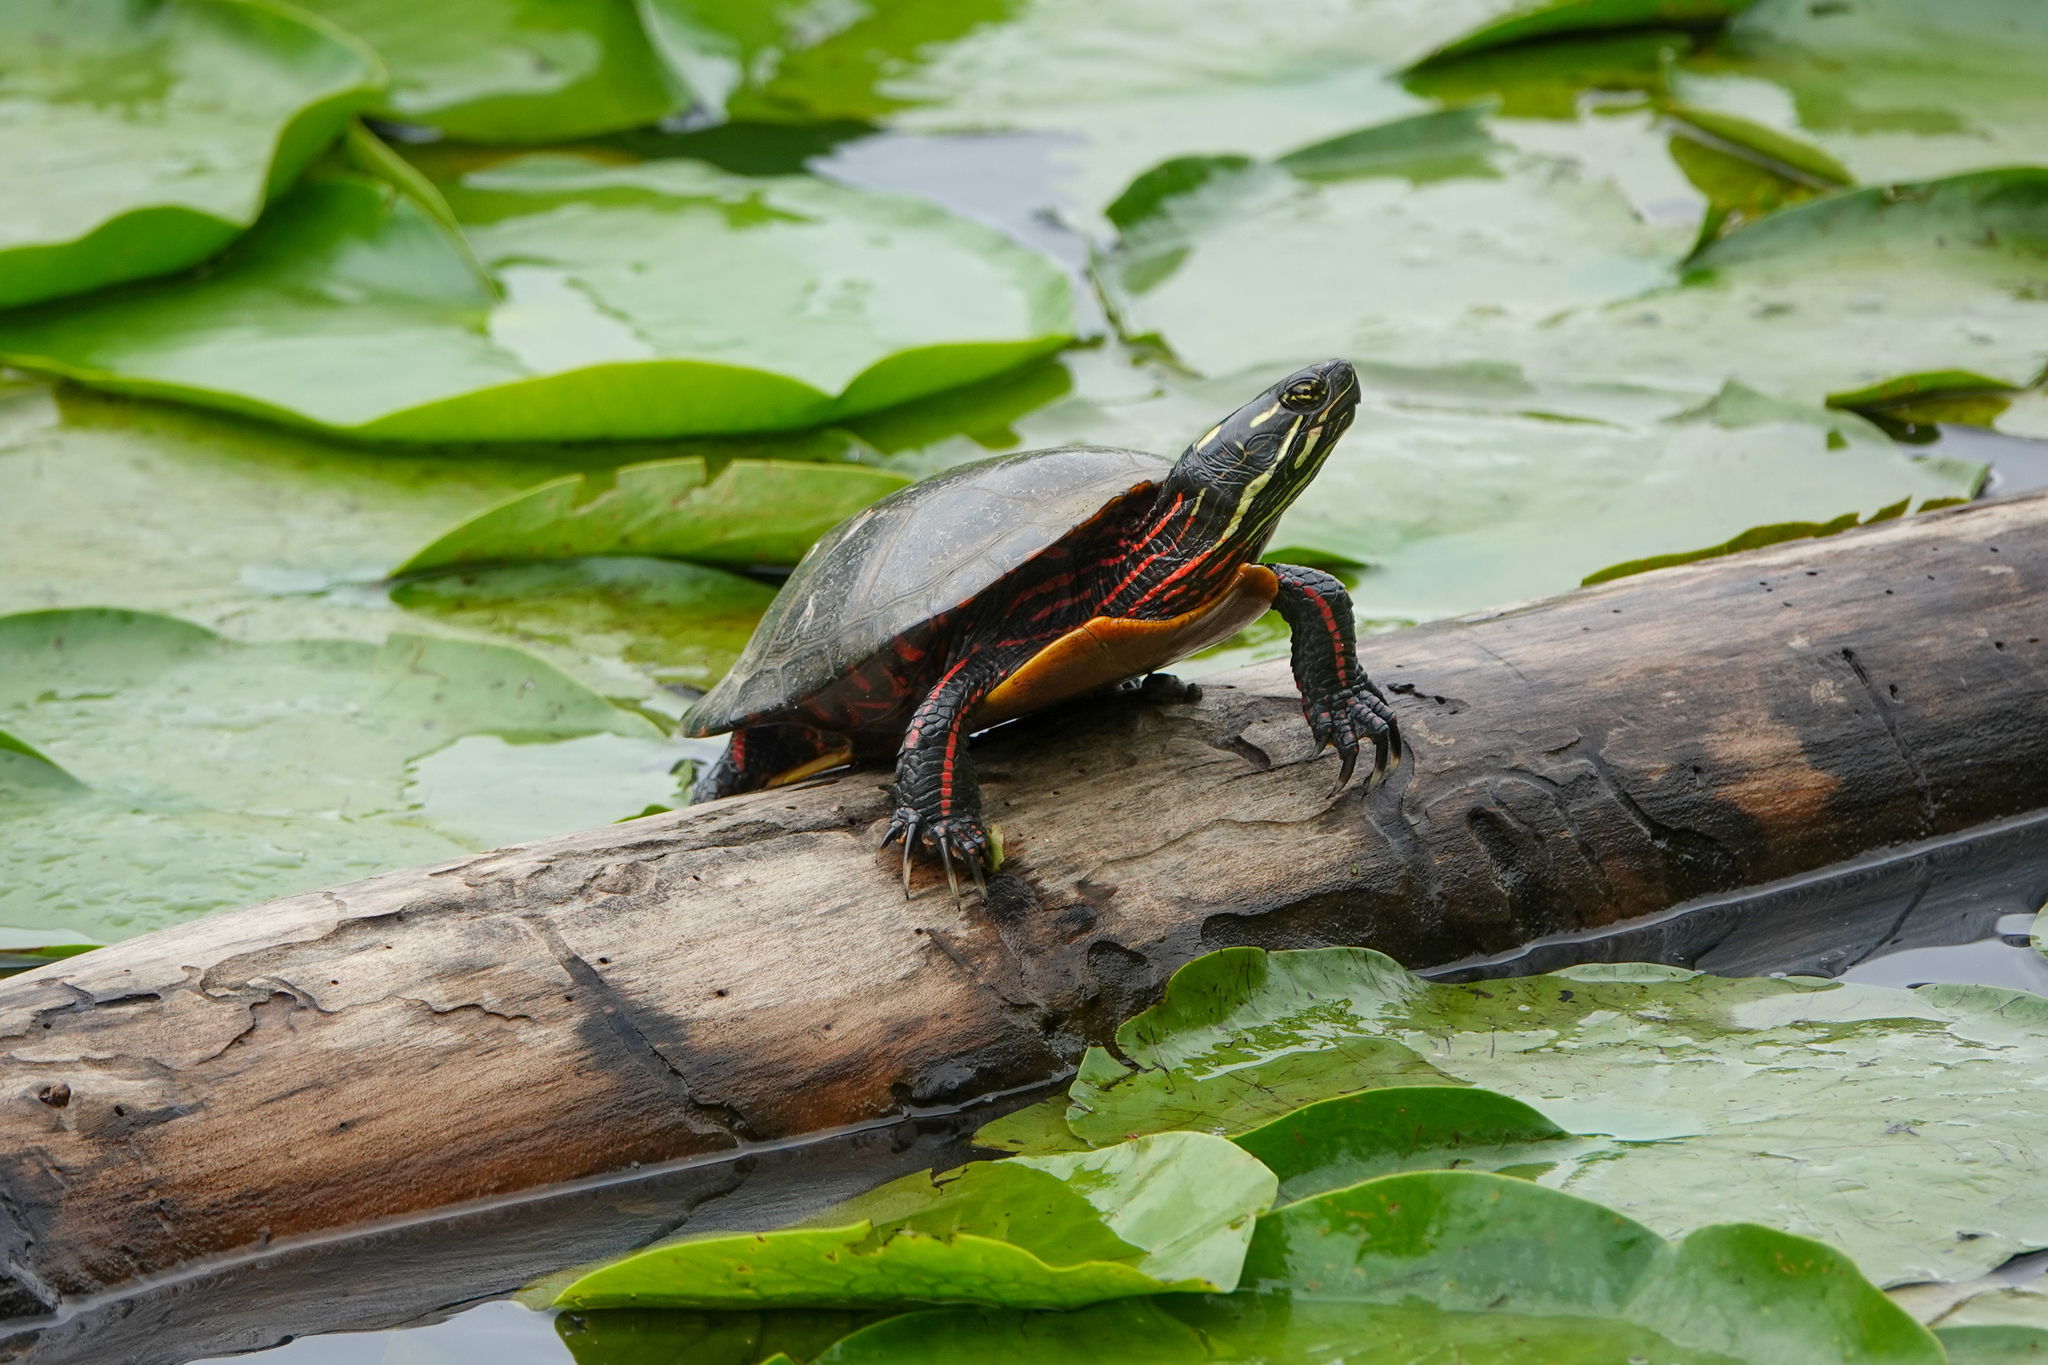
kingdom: Animalia
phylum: Chordata
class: Testudines
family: Emydidae
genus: Chrysemys
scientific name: Chrysemys picta
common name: Painted turtle
